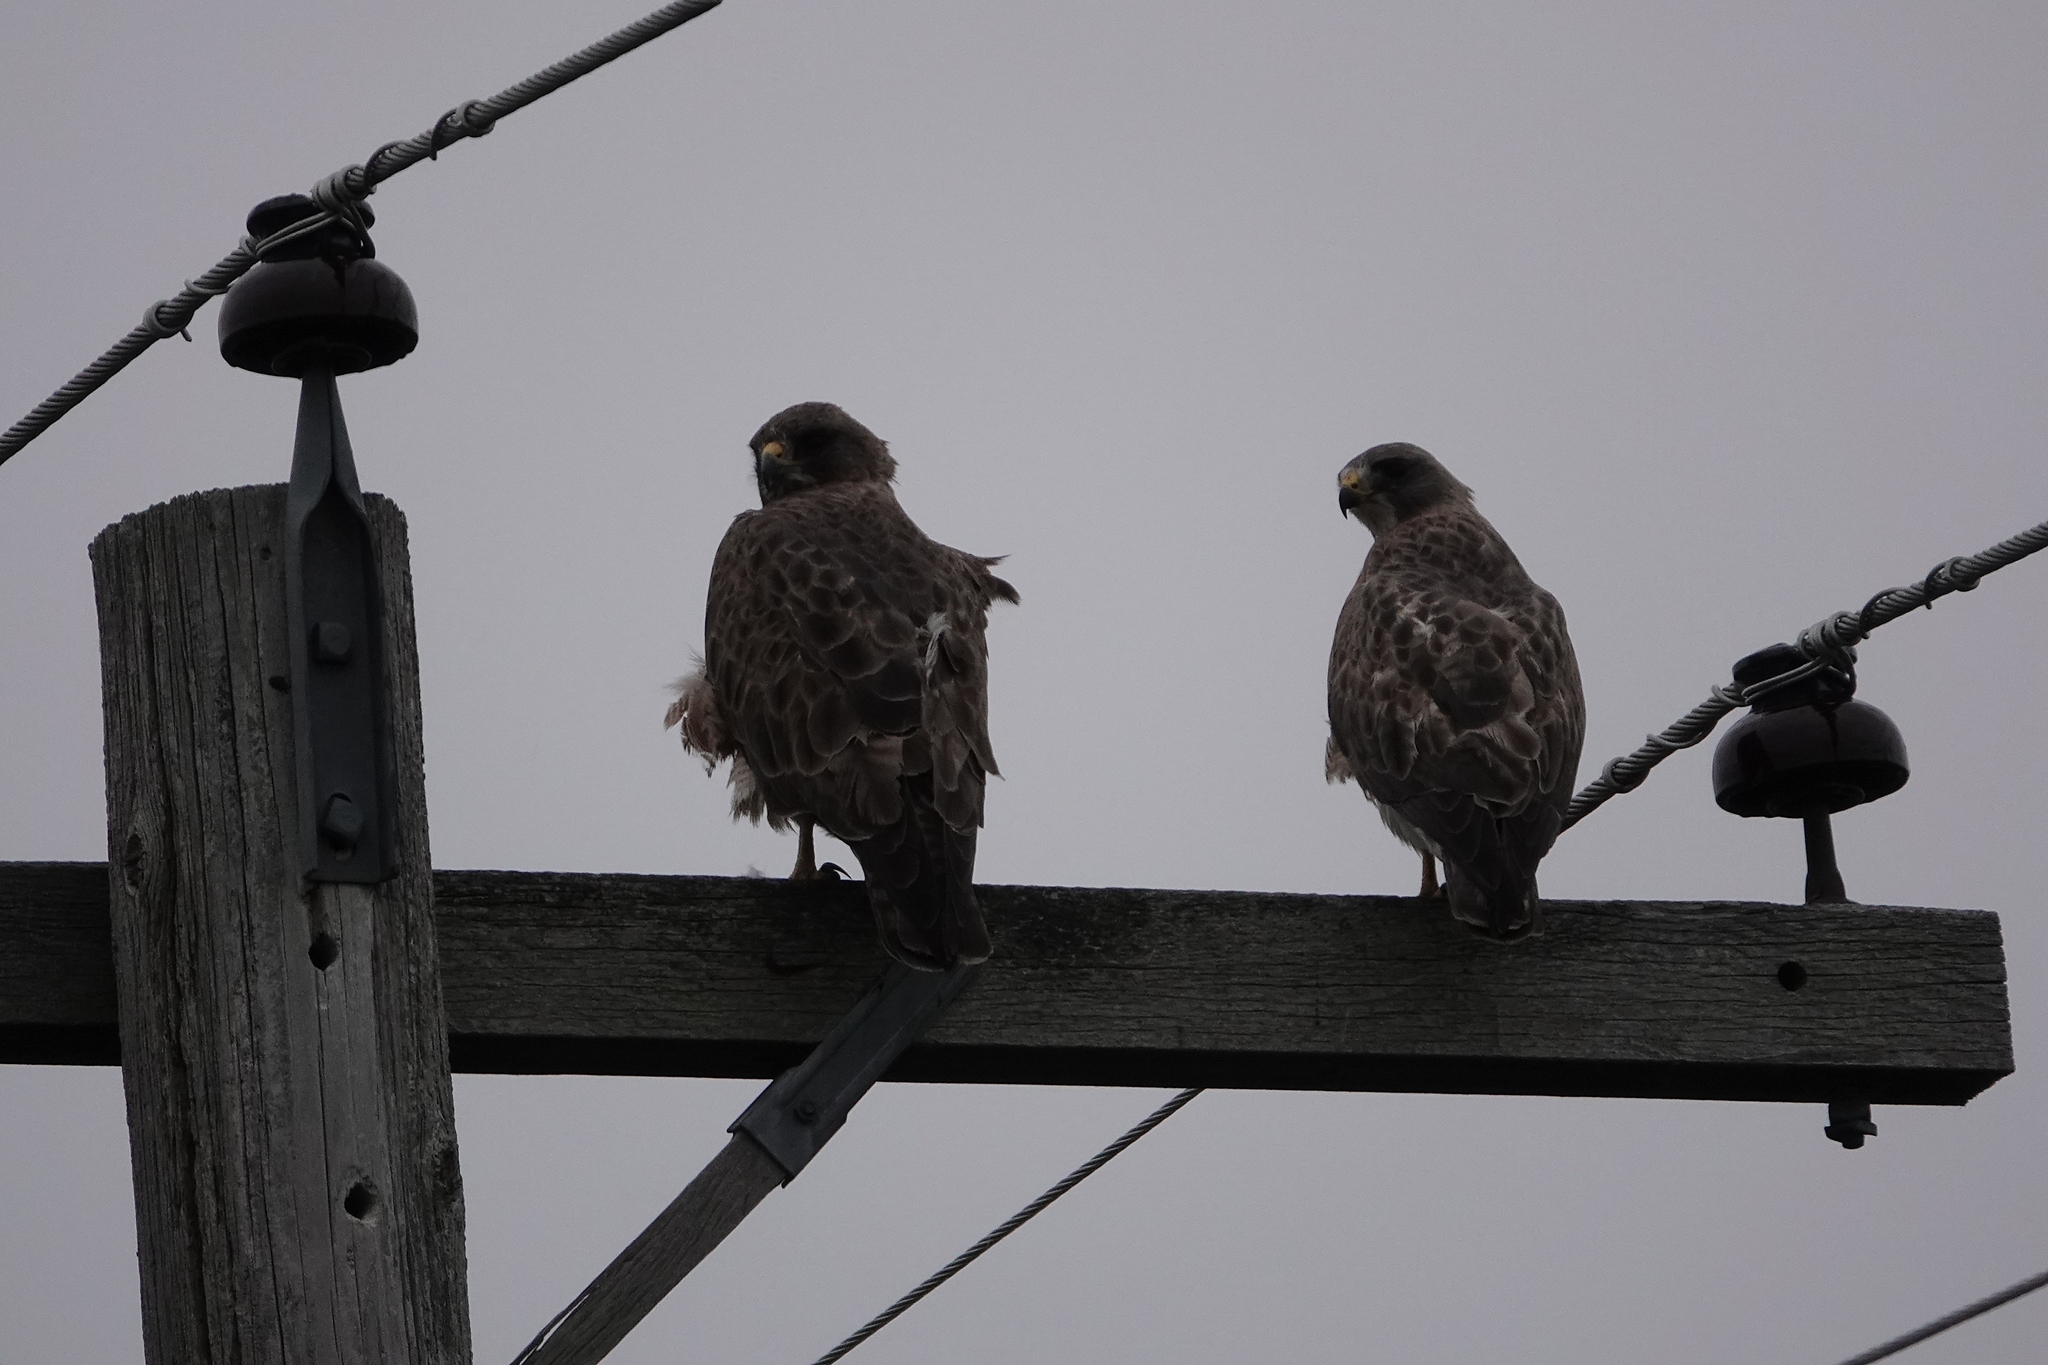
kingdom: Animalia
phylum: Chordata
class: Aves
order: Accipitriformes
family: Accipitridae
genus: Buteo
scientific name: Buteo swainsoni
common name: Swainson's hawk
